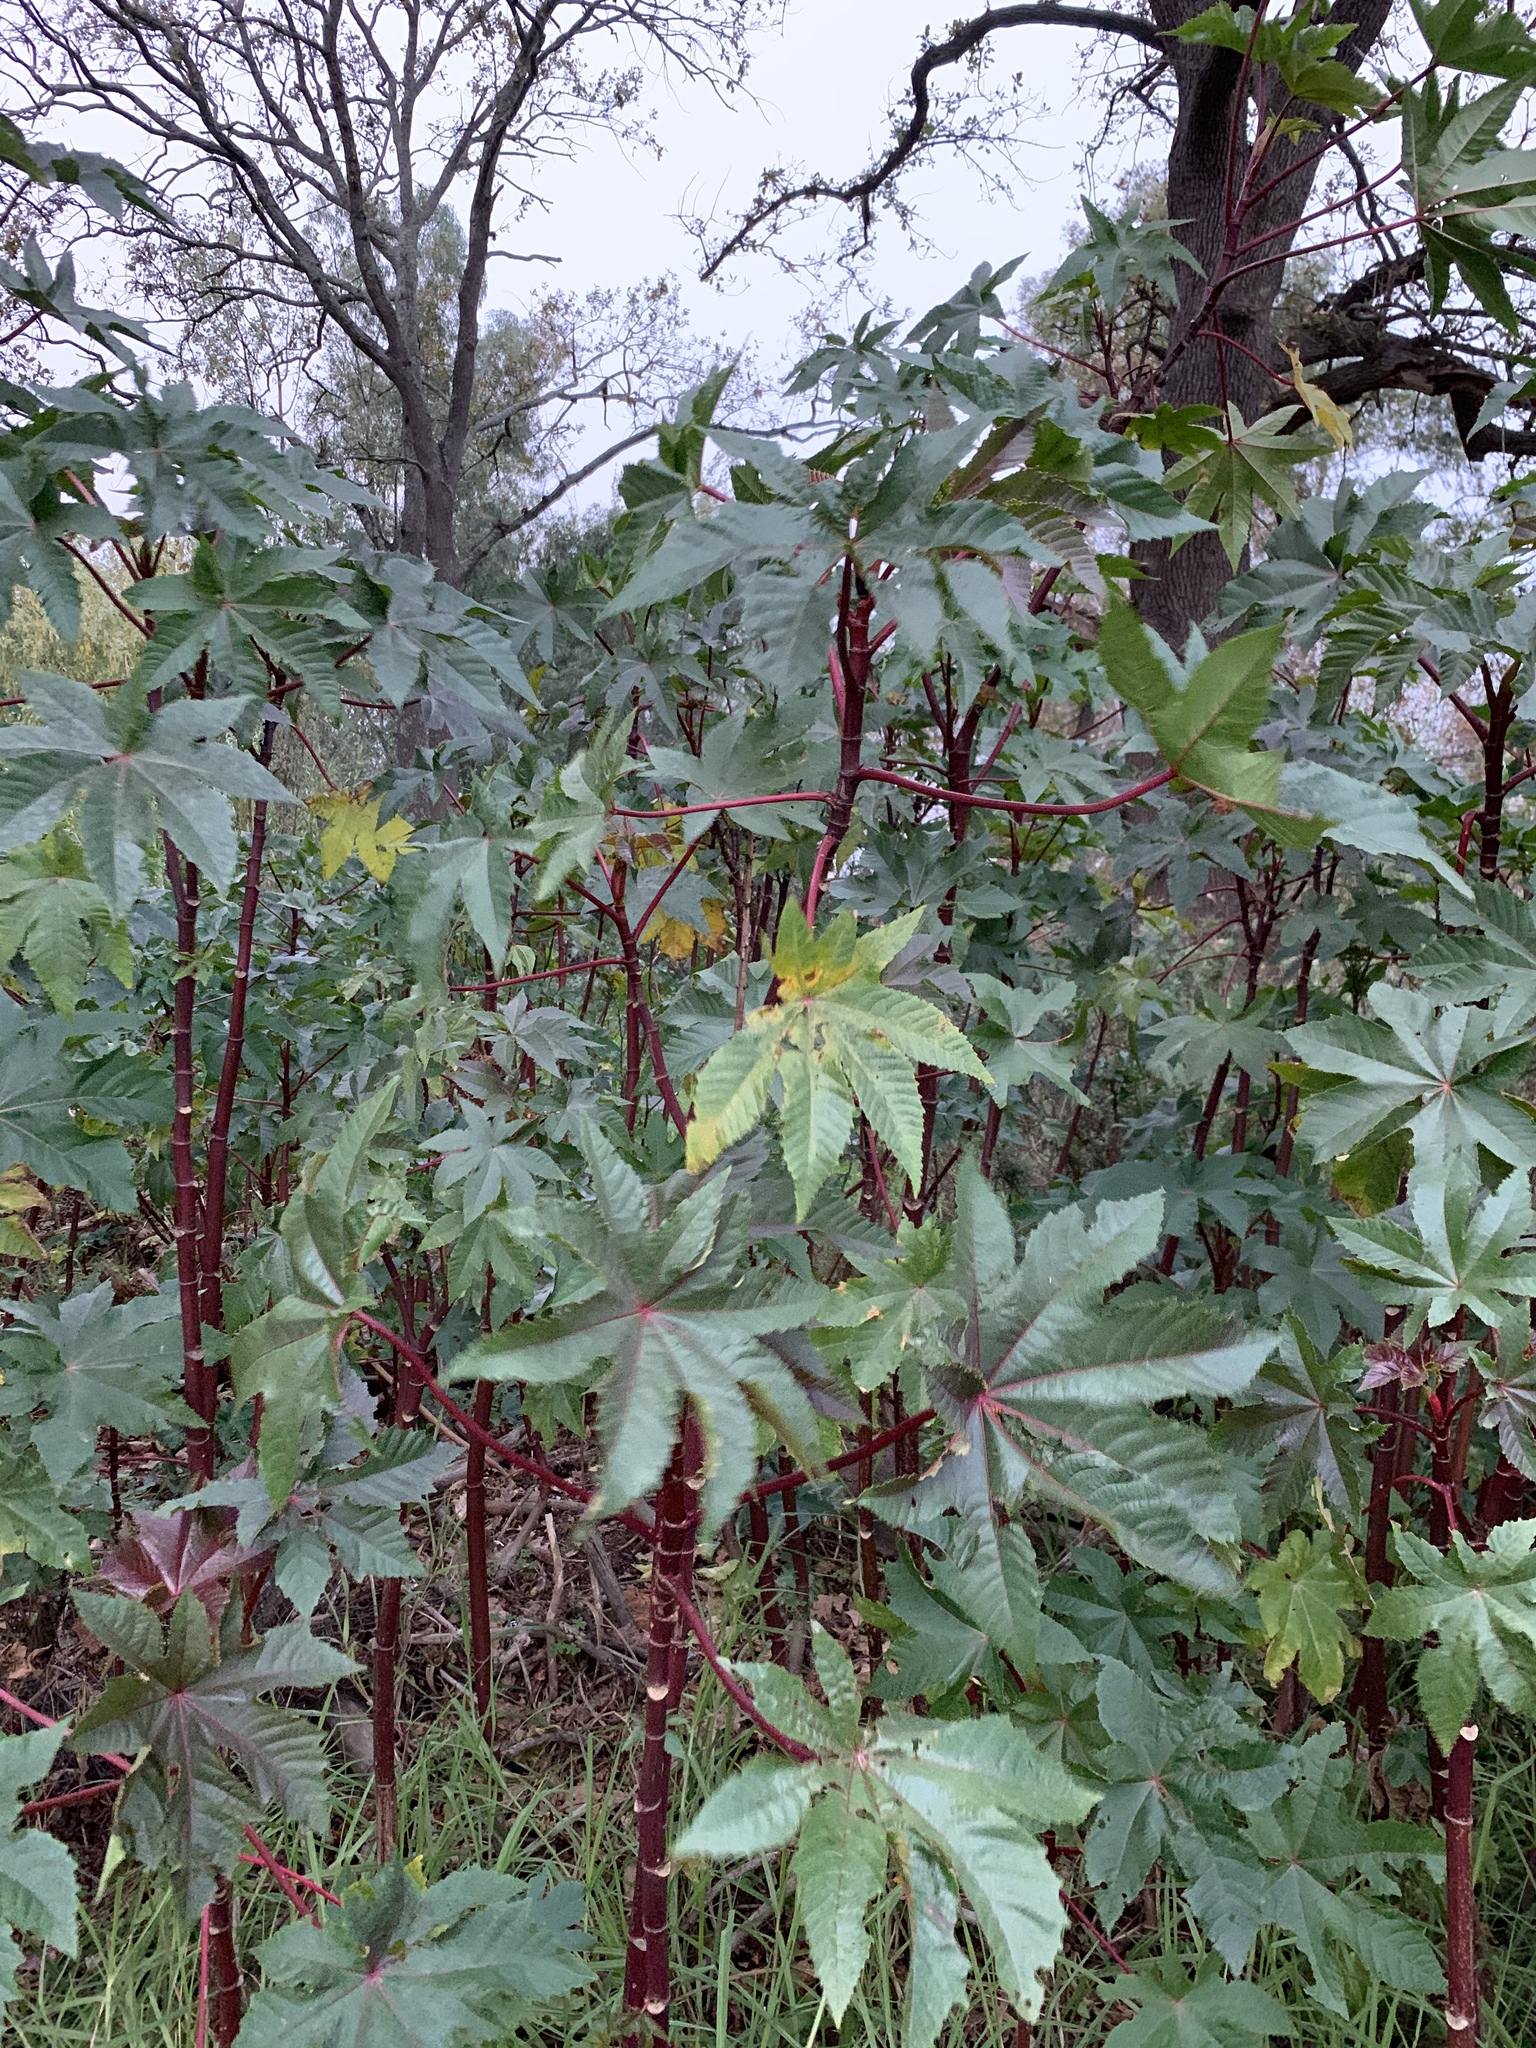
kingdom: Plantae
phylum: Tracheophyta
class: Magnoliopsida
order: Malpighiales
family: Euphorbiaceae
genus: Ricinus
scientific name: Ricinus communis
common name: Castor-oil-plant
